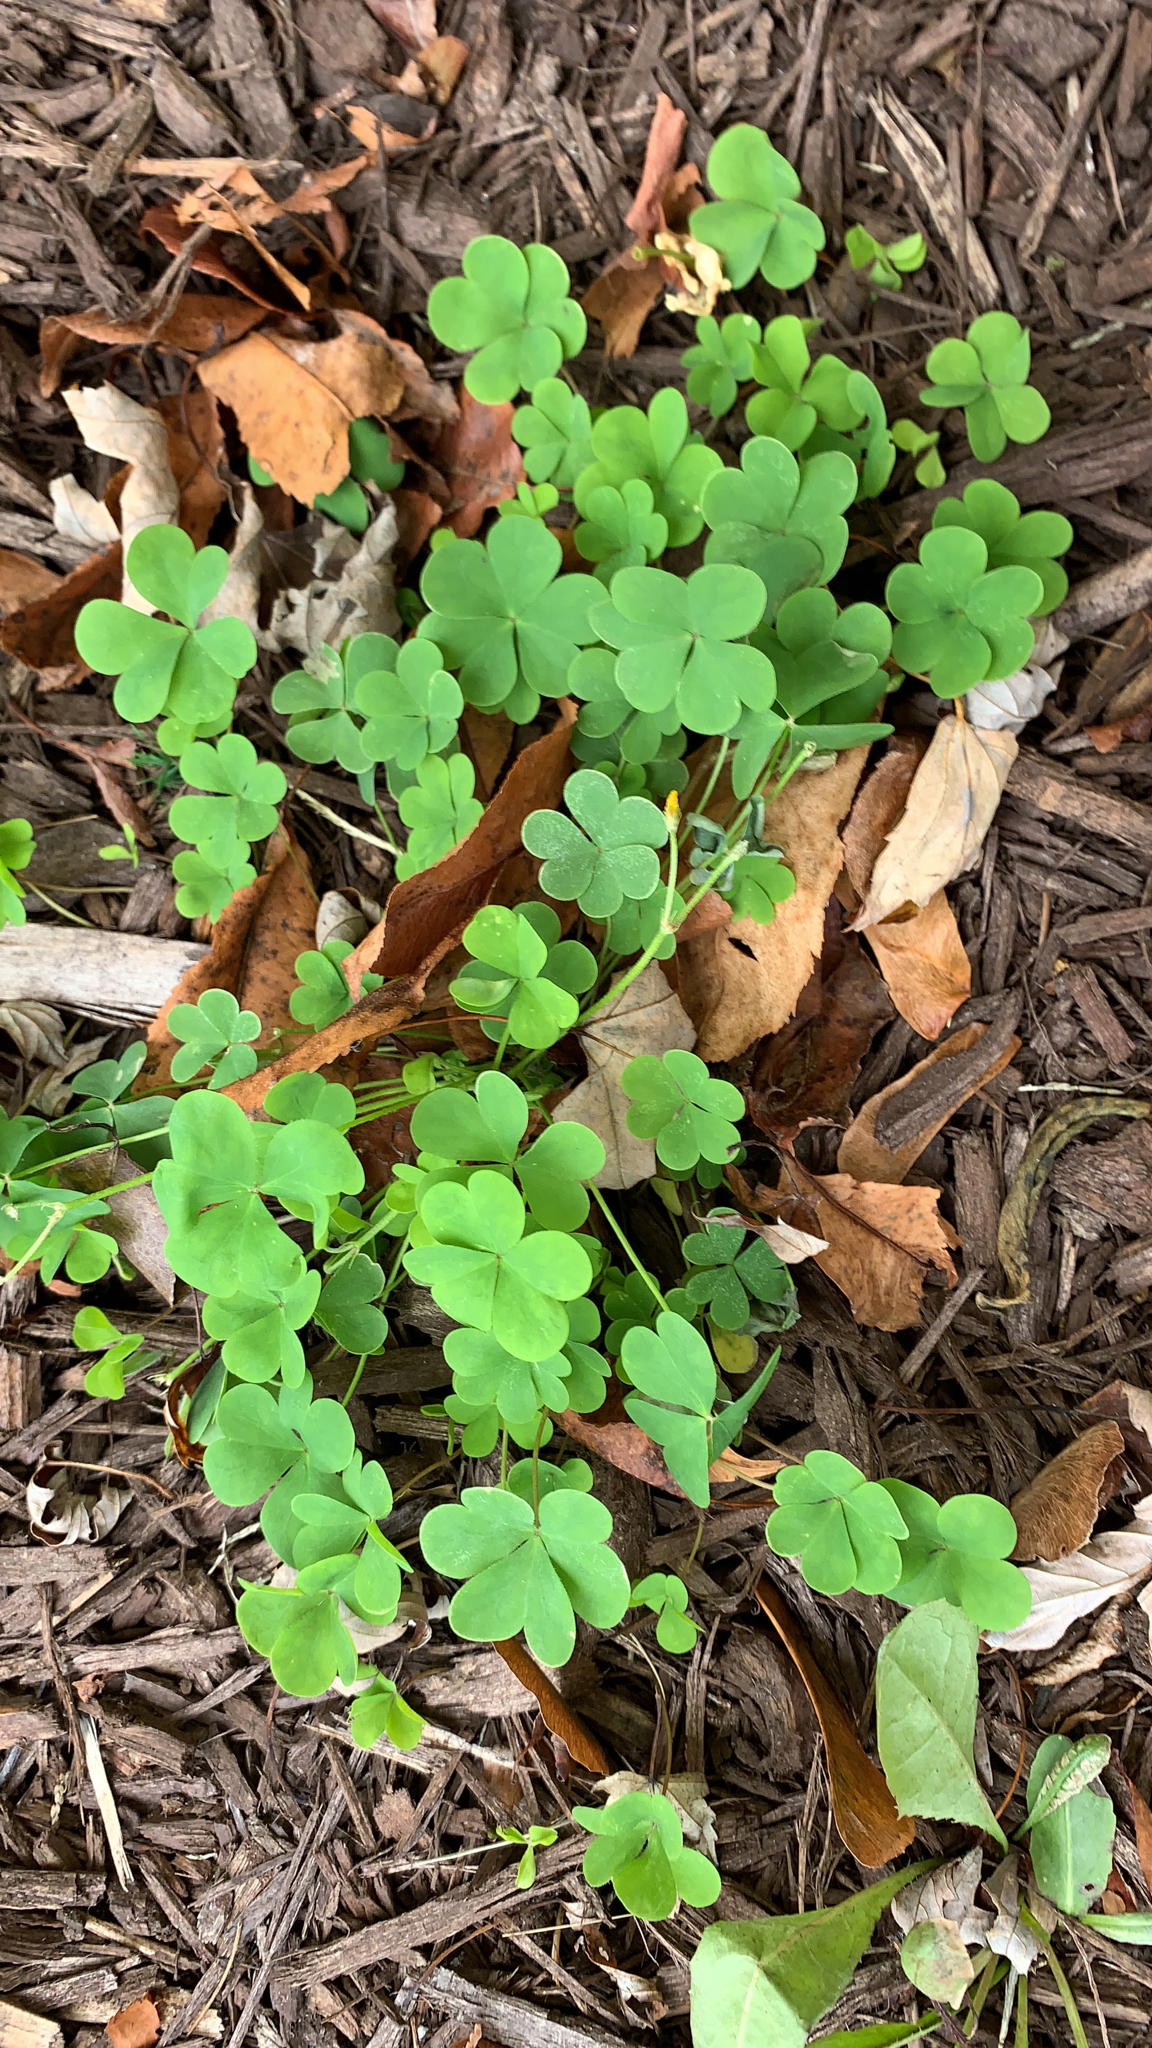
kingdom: Plantae
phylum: Tracheophyta
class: Magnoliopsida
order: Oxalidales
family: Oxalidaceae
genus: Oxalis
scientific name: Oxalis corniculata
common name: Procumbent yellow-sorrel
